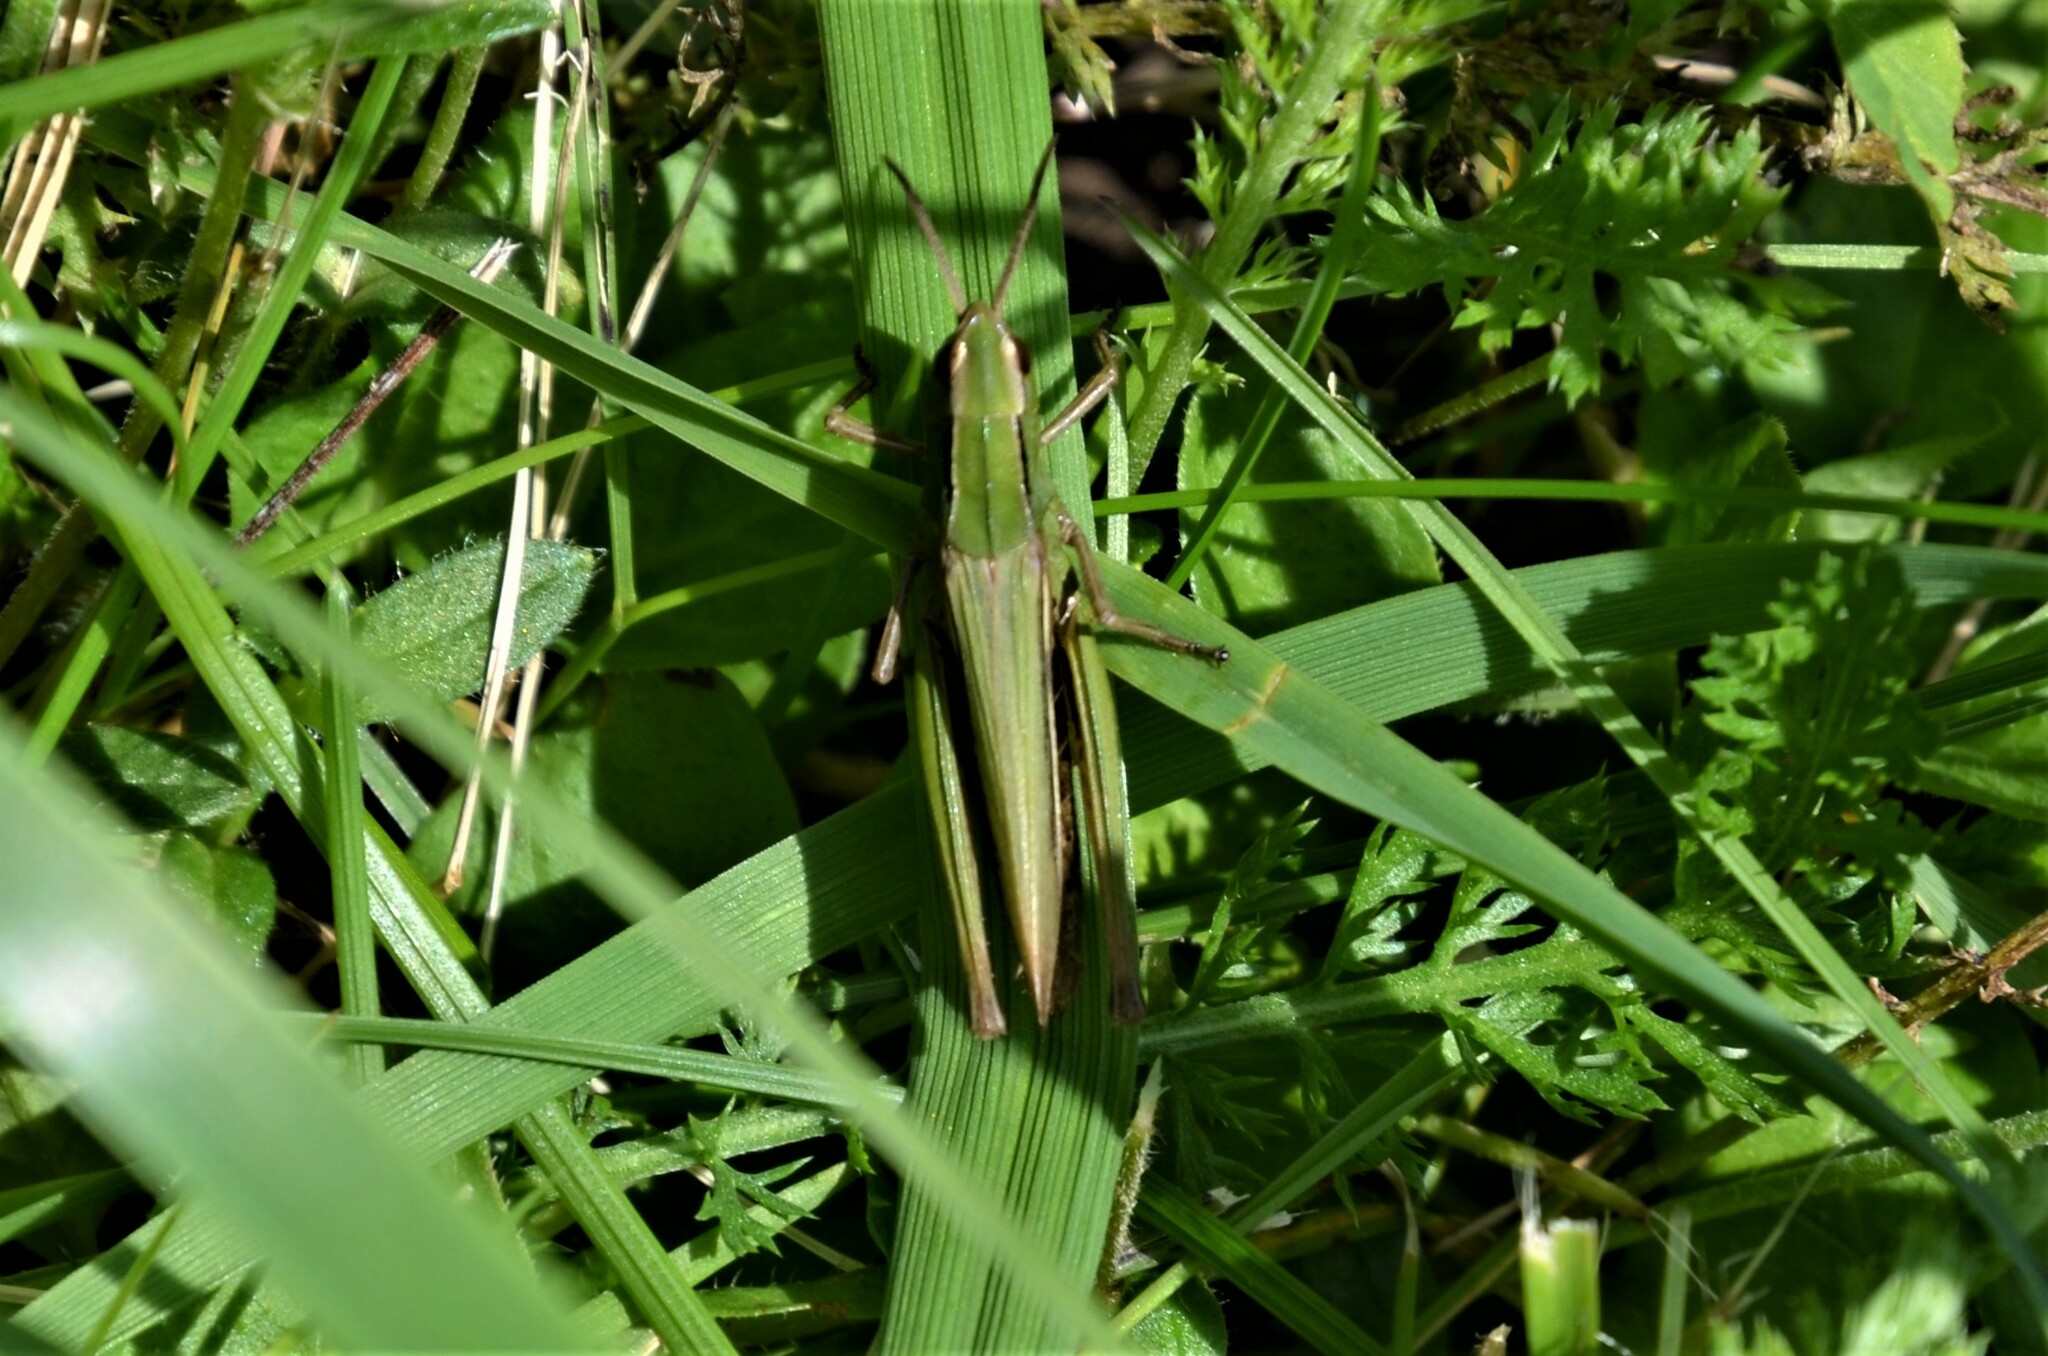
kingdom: Animalia
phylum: Arthropoda
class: Insecta
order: Orthoptera
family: Acrididae
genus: Chorthippus
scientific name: Chorthippus albomarginatus
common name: Lesser marsh grasshopper
